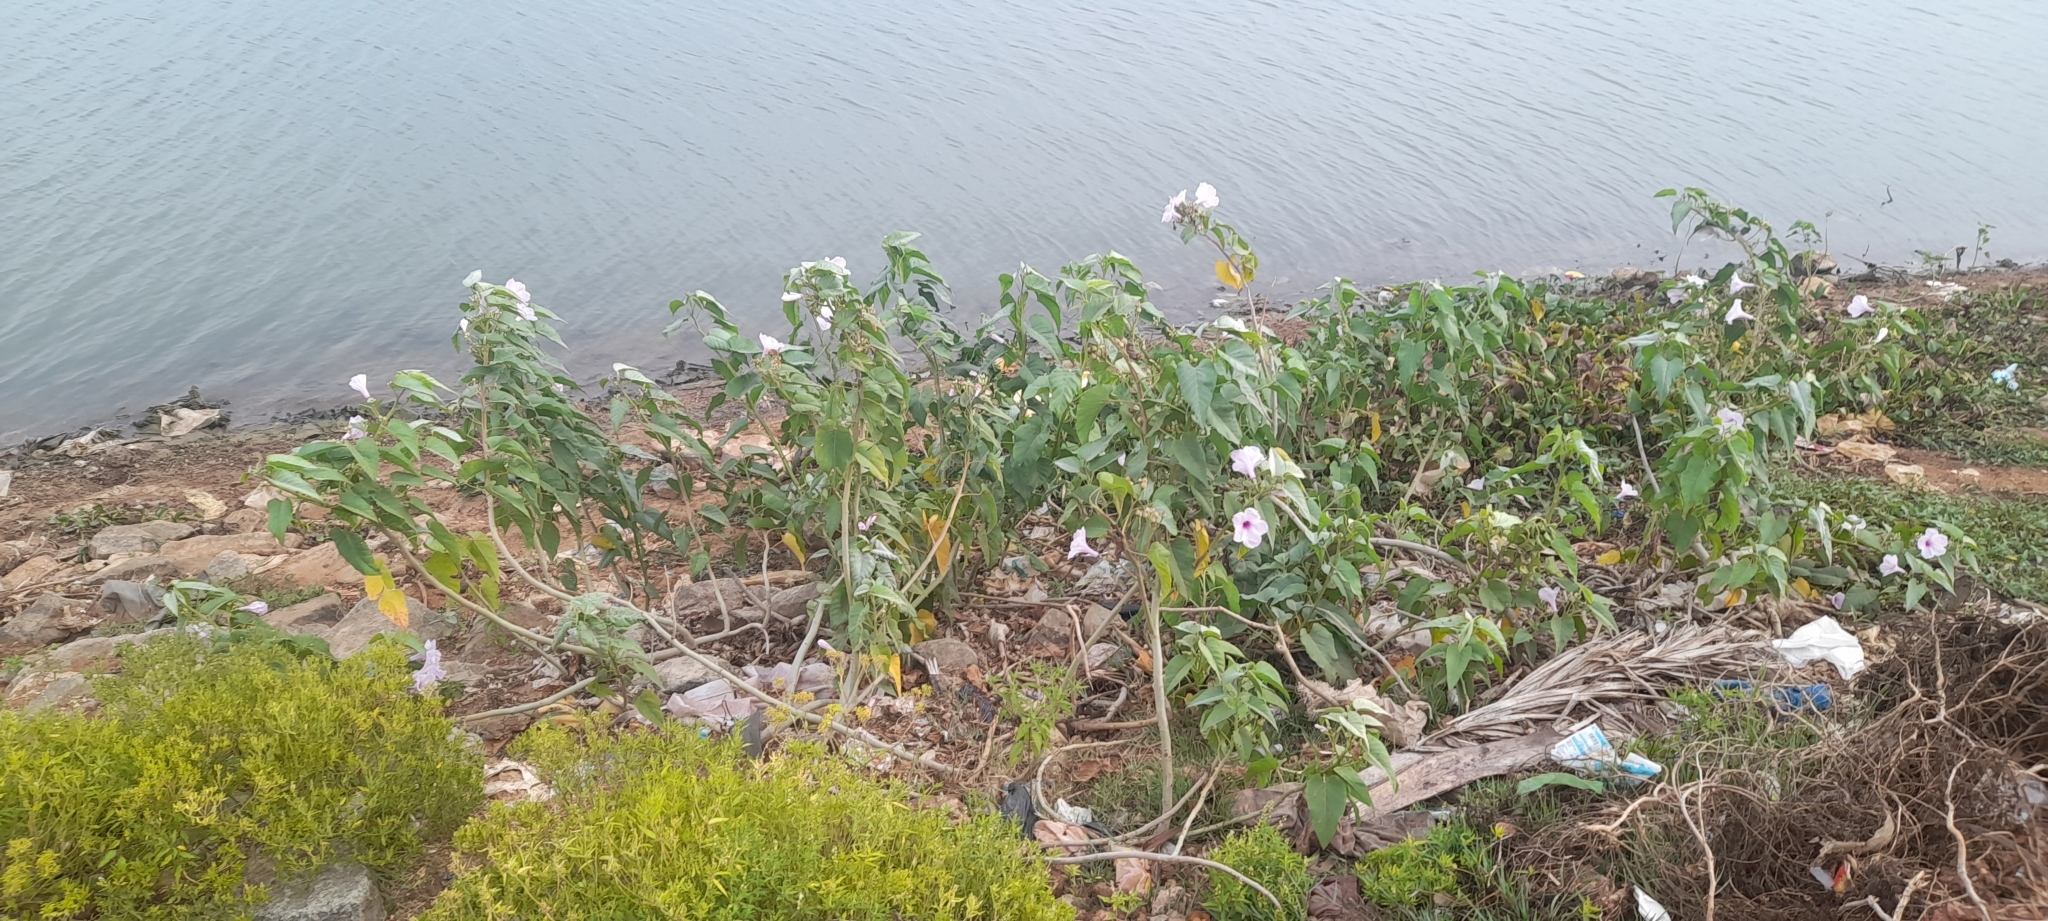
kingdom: Plantae
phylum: Tracheophyta
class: Magnoliopsida
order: Solanales
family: Convolvulaceae
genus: Ipomoea
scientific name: Ipomoea carnea
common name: Morning-glory
